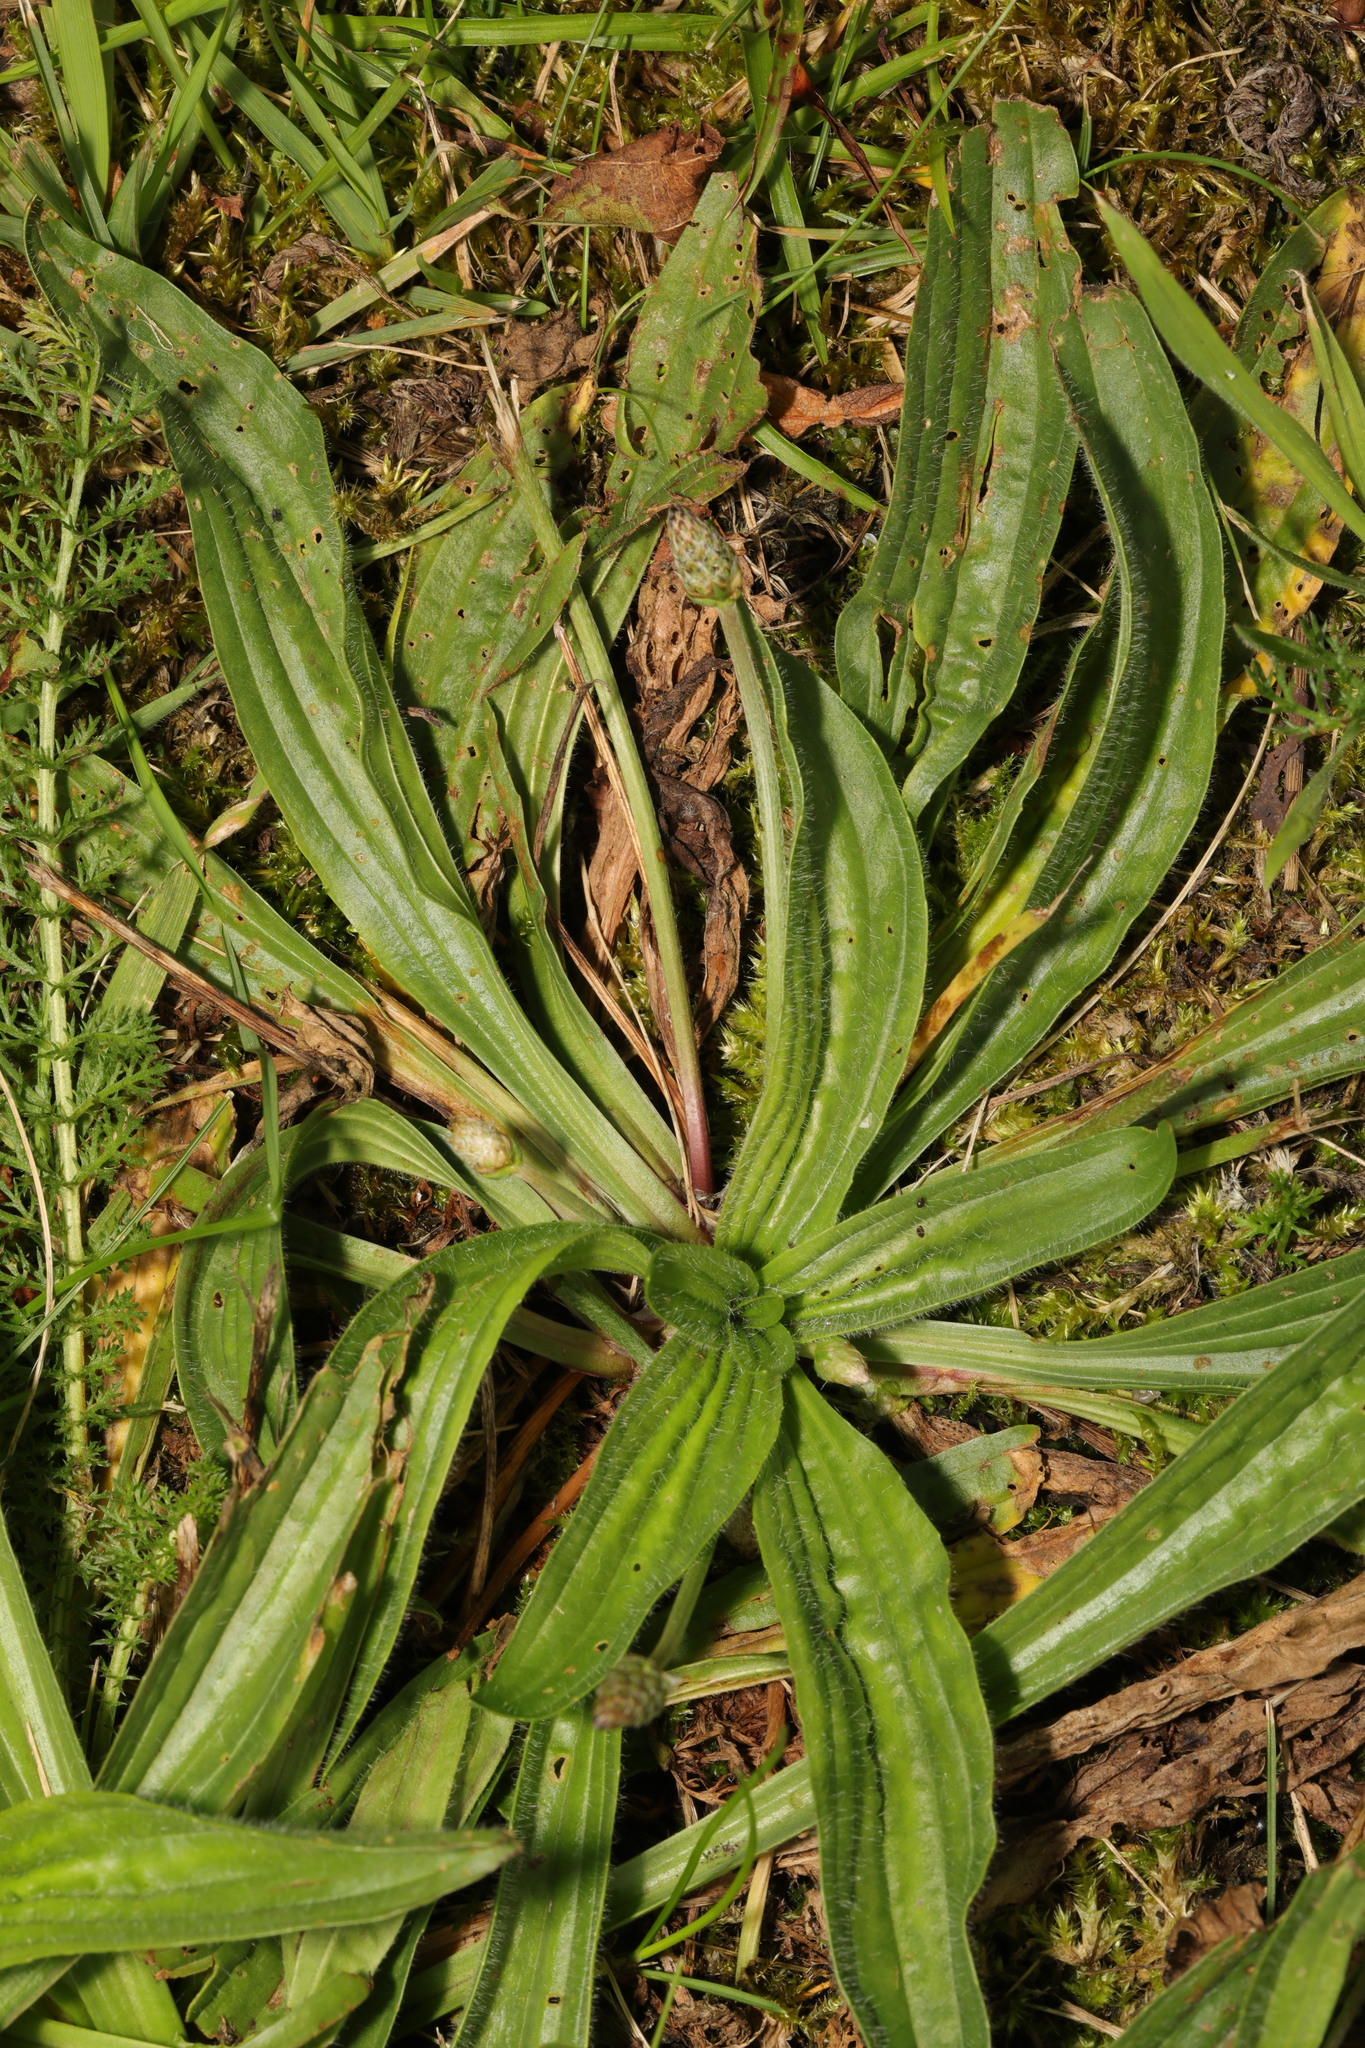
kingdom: Plantae
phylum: Tracheophyta
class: Magnoliopsida
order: Lamiales
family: Plantaginaceae
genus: Plantago
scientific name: Plantago lanceolata
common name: Ribwort plantain
